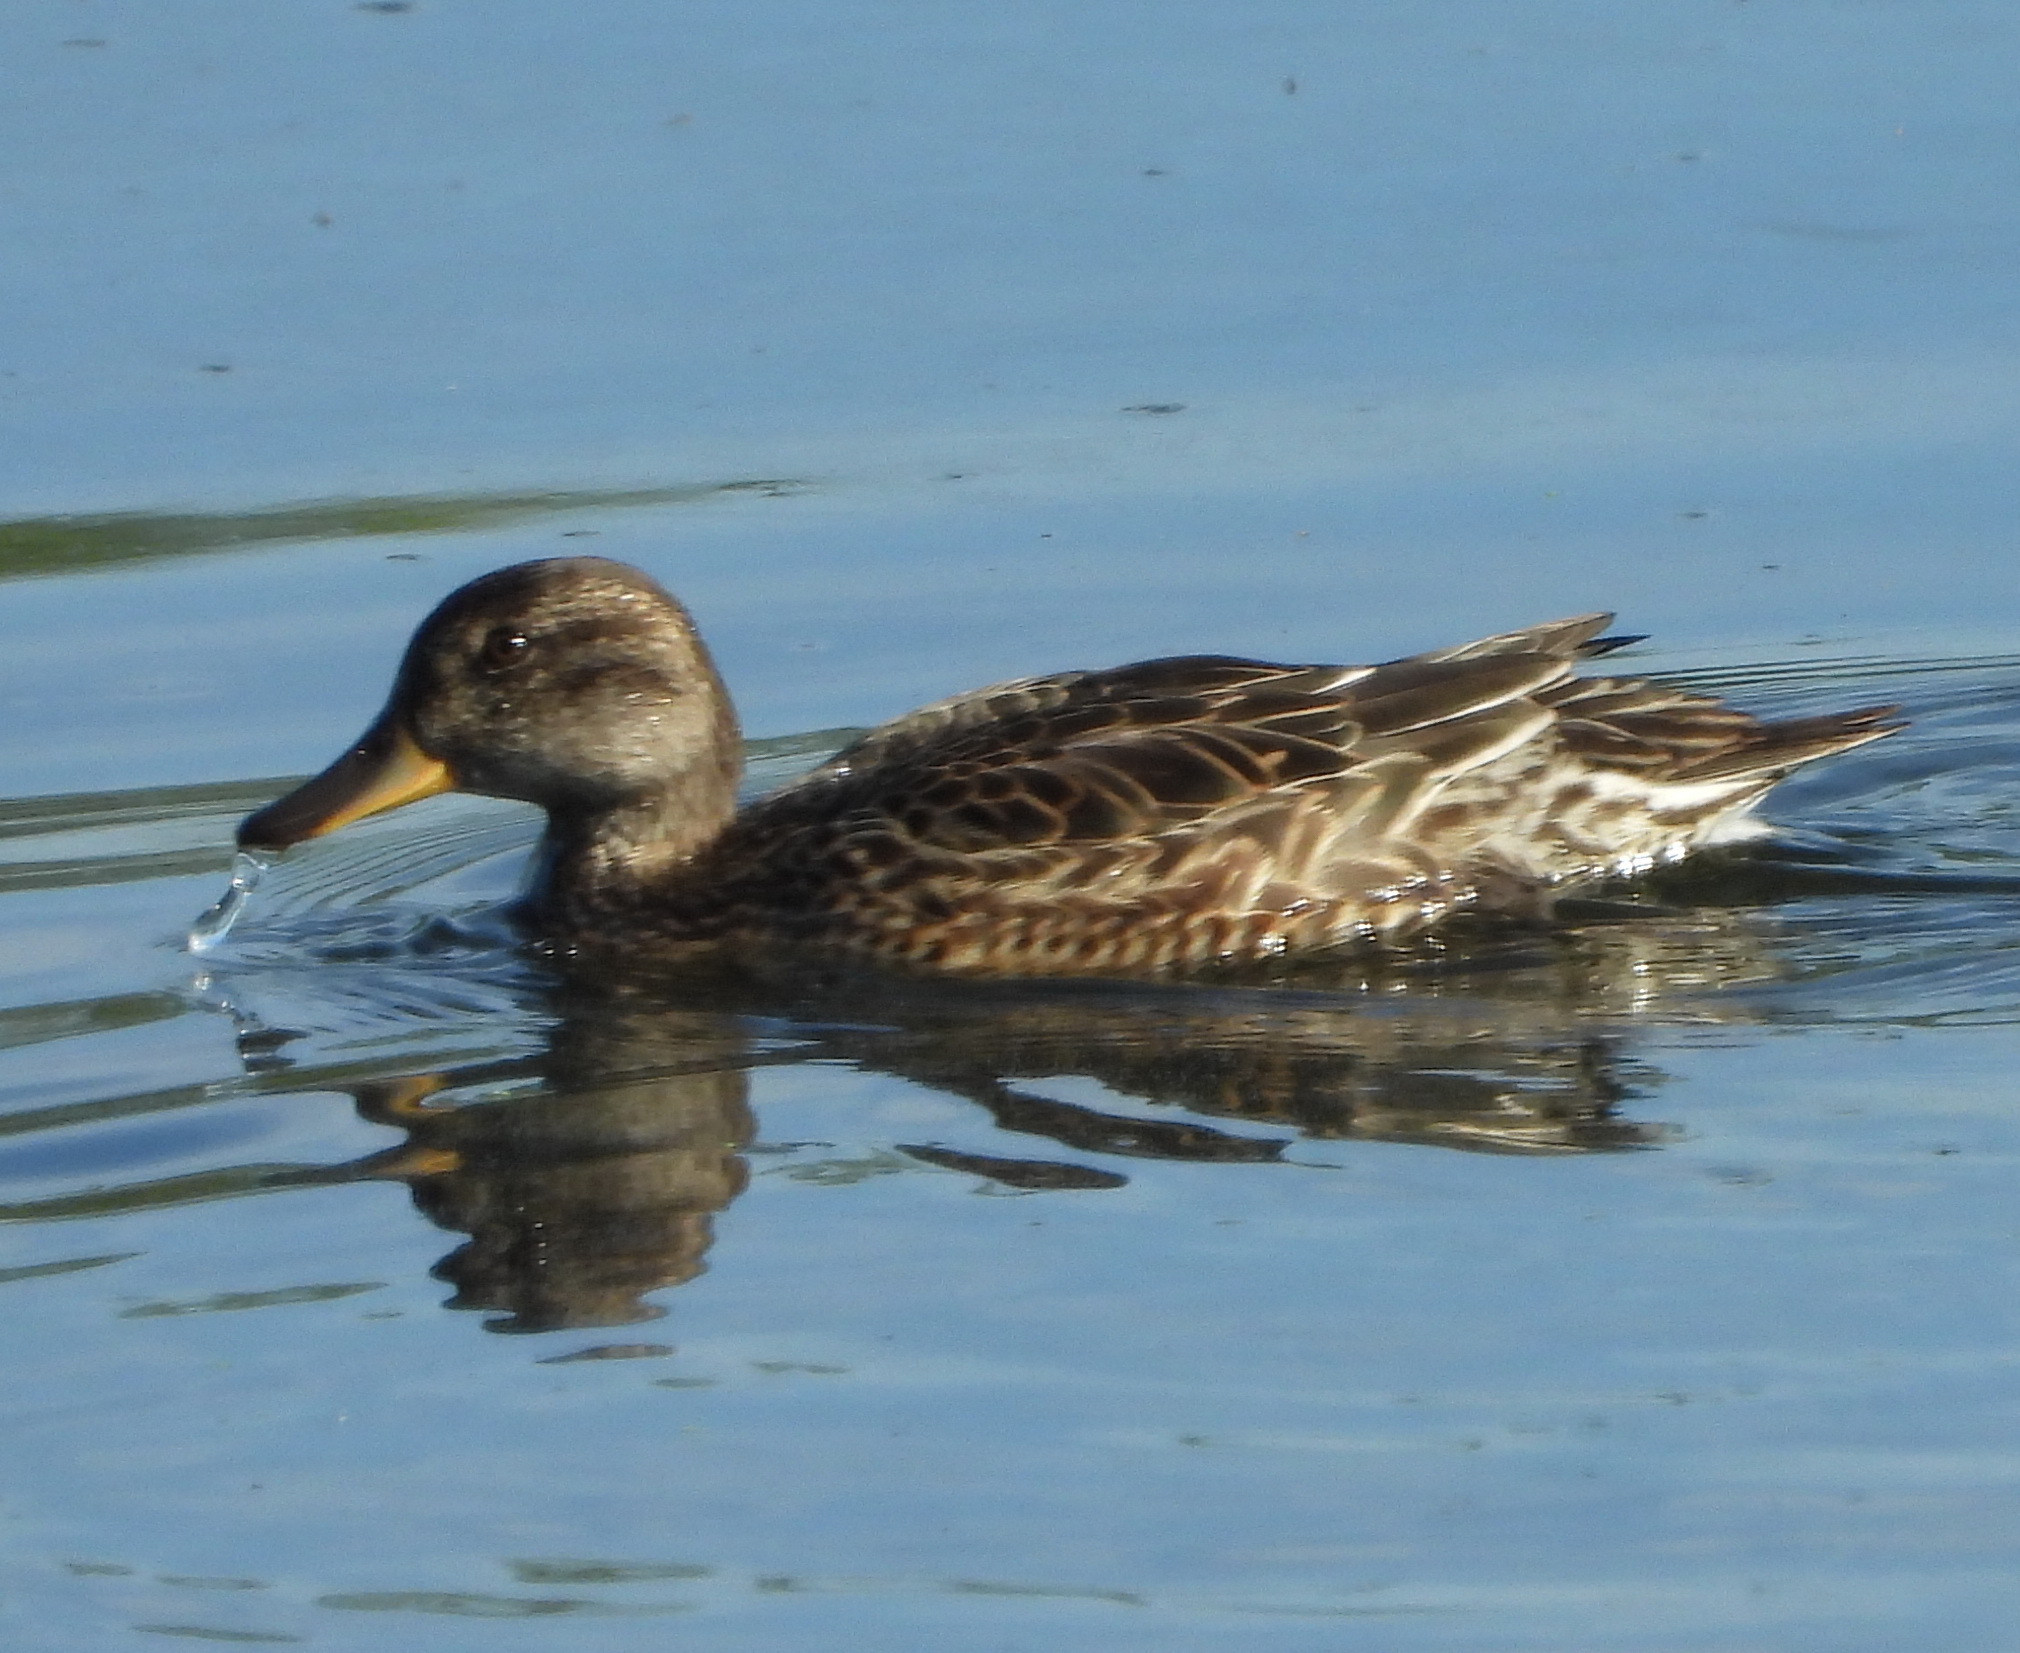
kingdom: Animalia
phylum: Chordata
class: Aves
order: Anseriformes
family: Anatidae
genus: Mareca
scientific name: Mareca strepera
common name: Gadwall
